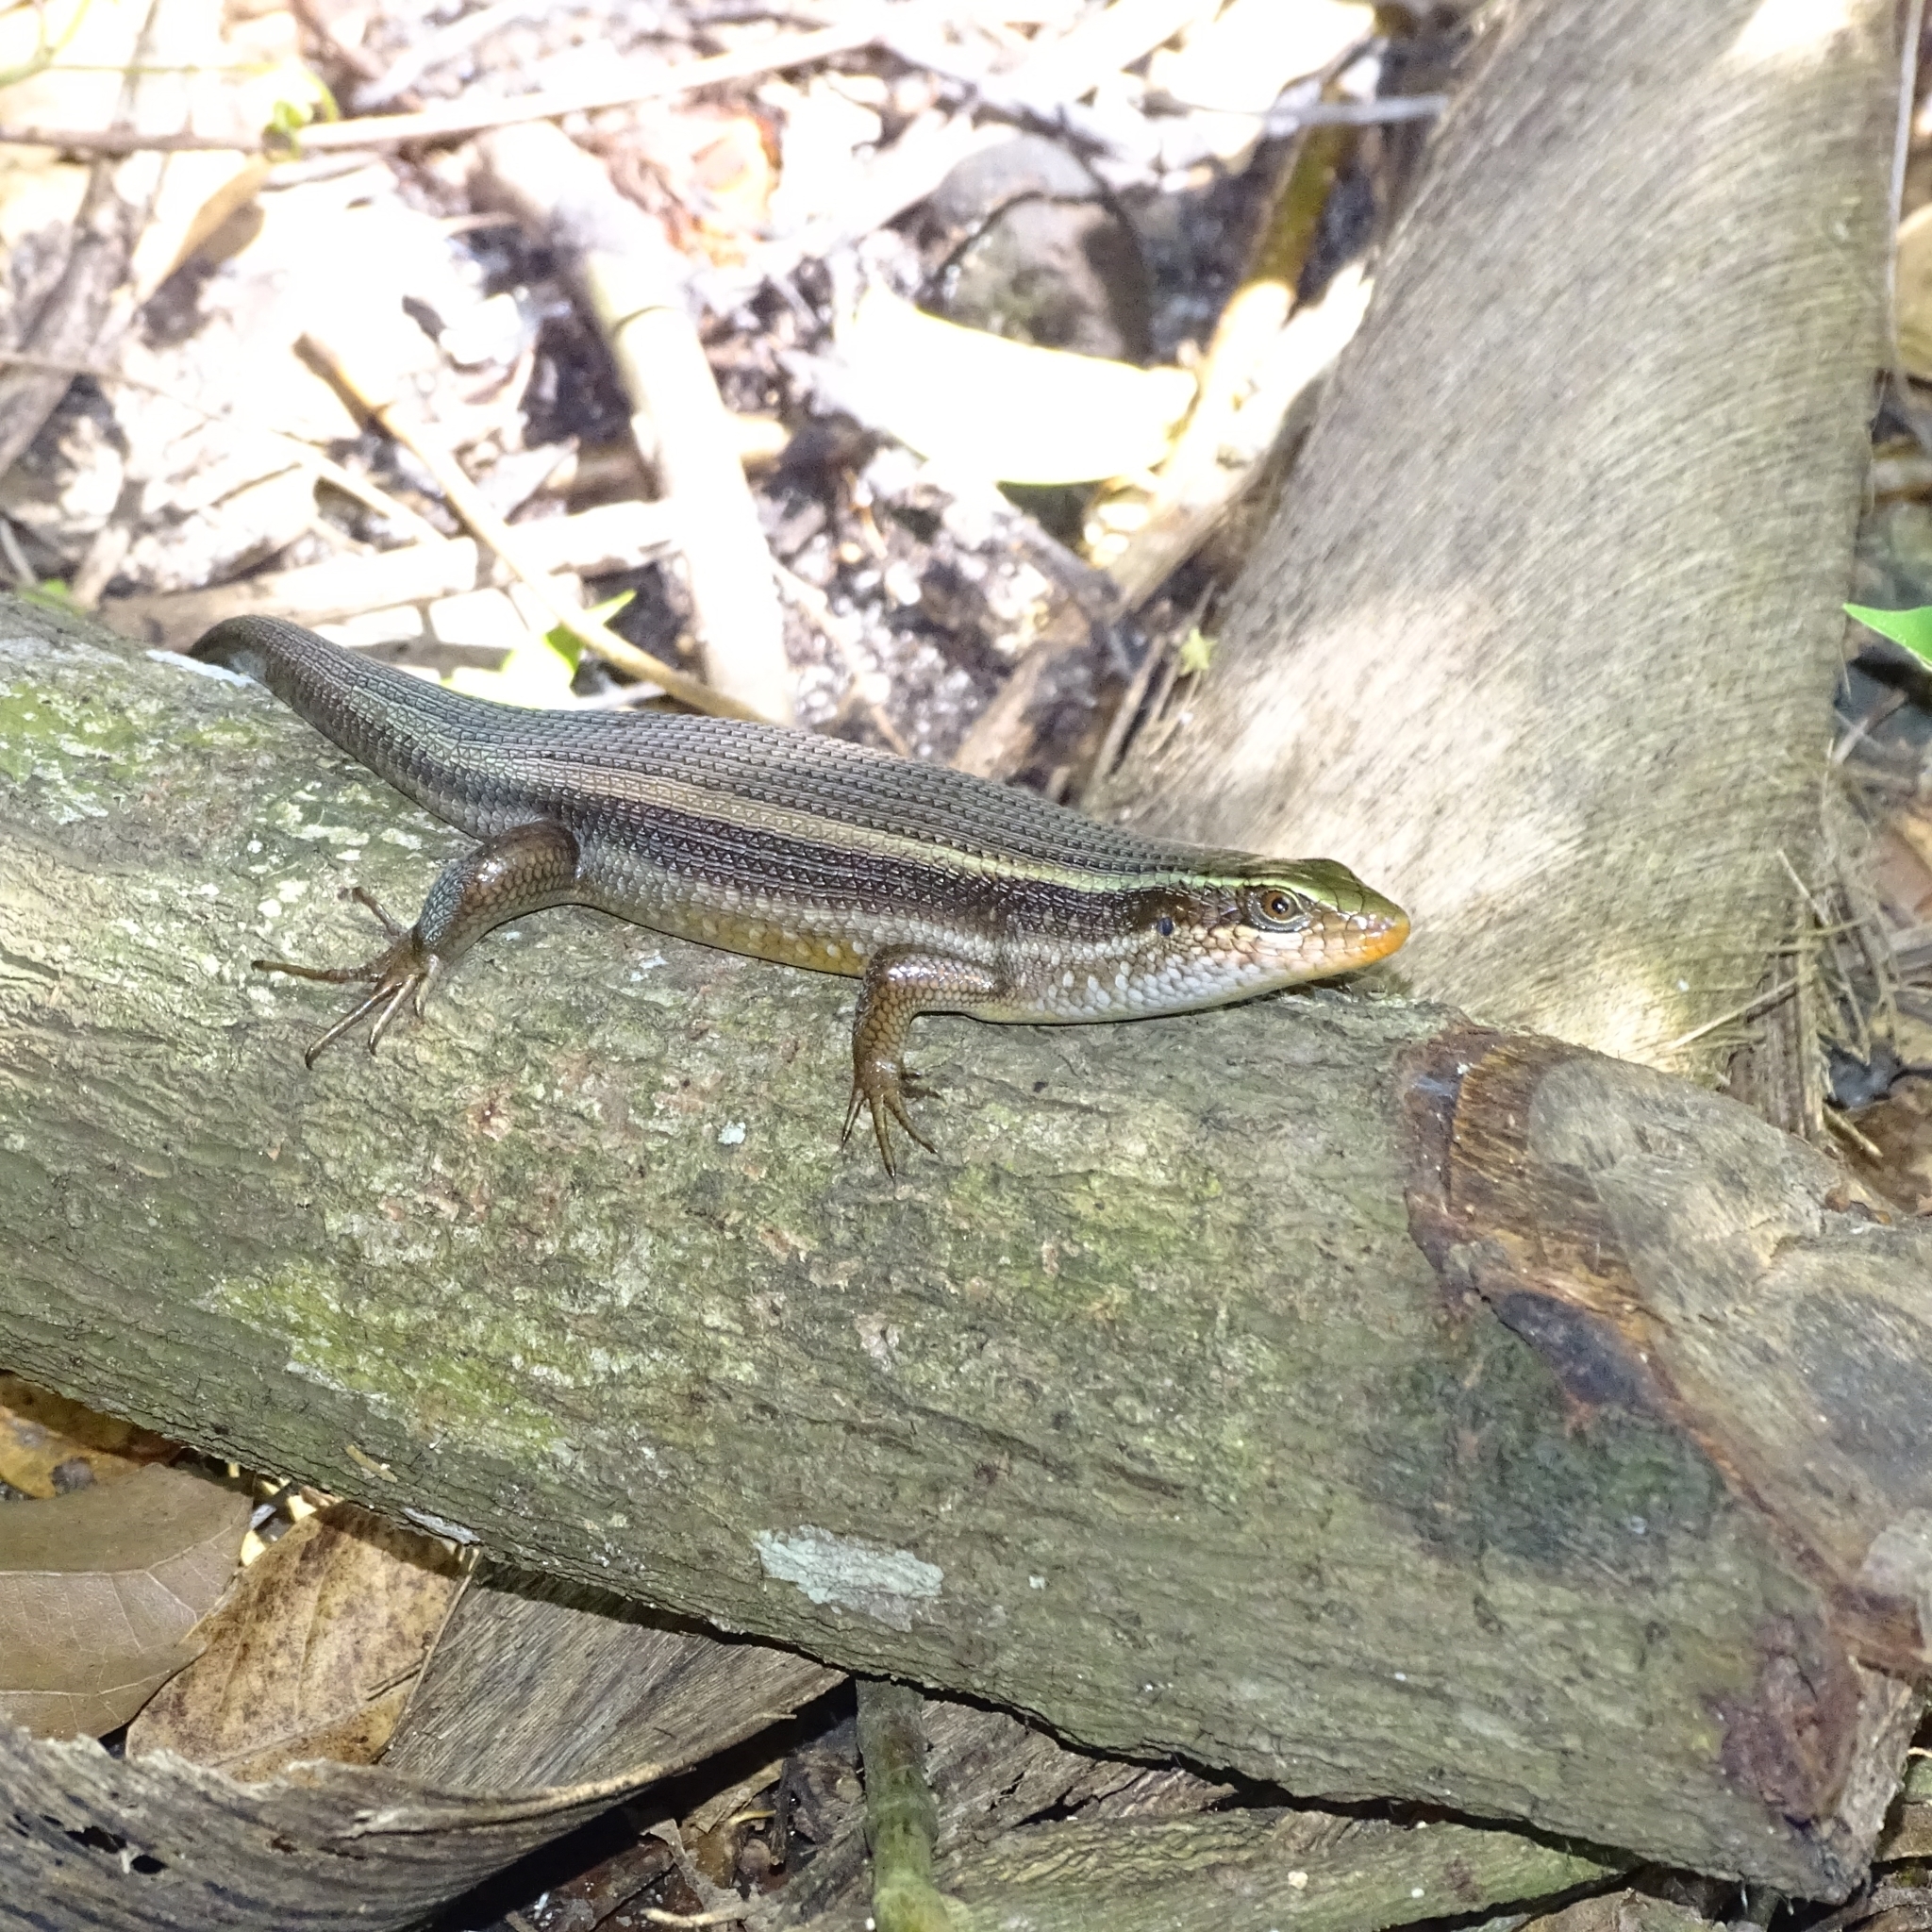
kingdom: Animalia
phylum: Chordata
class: Squamata
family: Scincidae
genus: Eutropis
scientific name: Eutropis carinata
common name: Keeled indian mabuya
